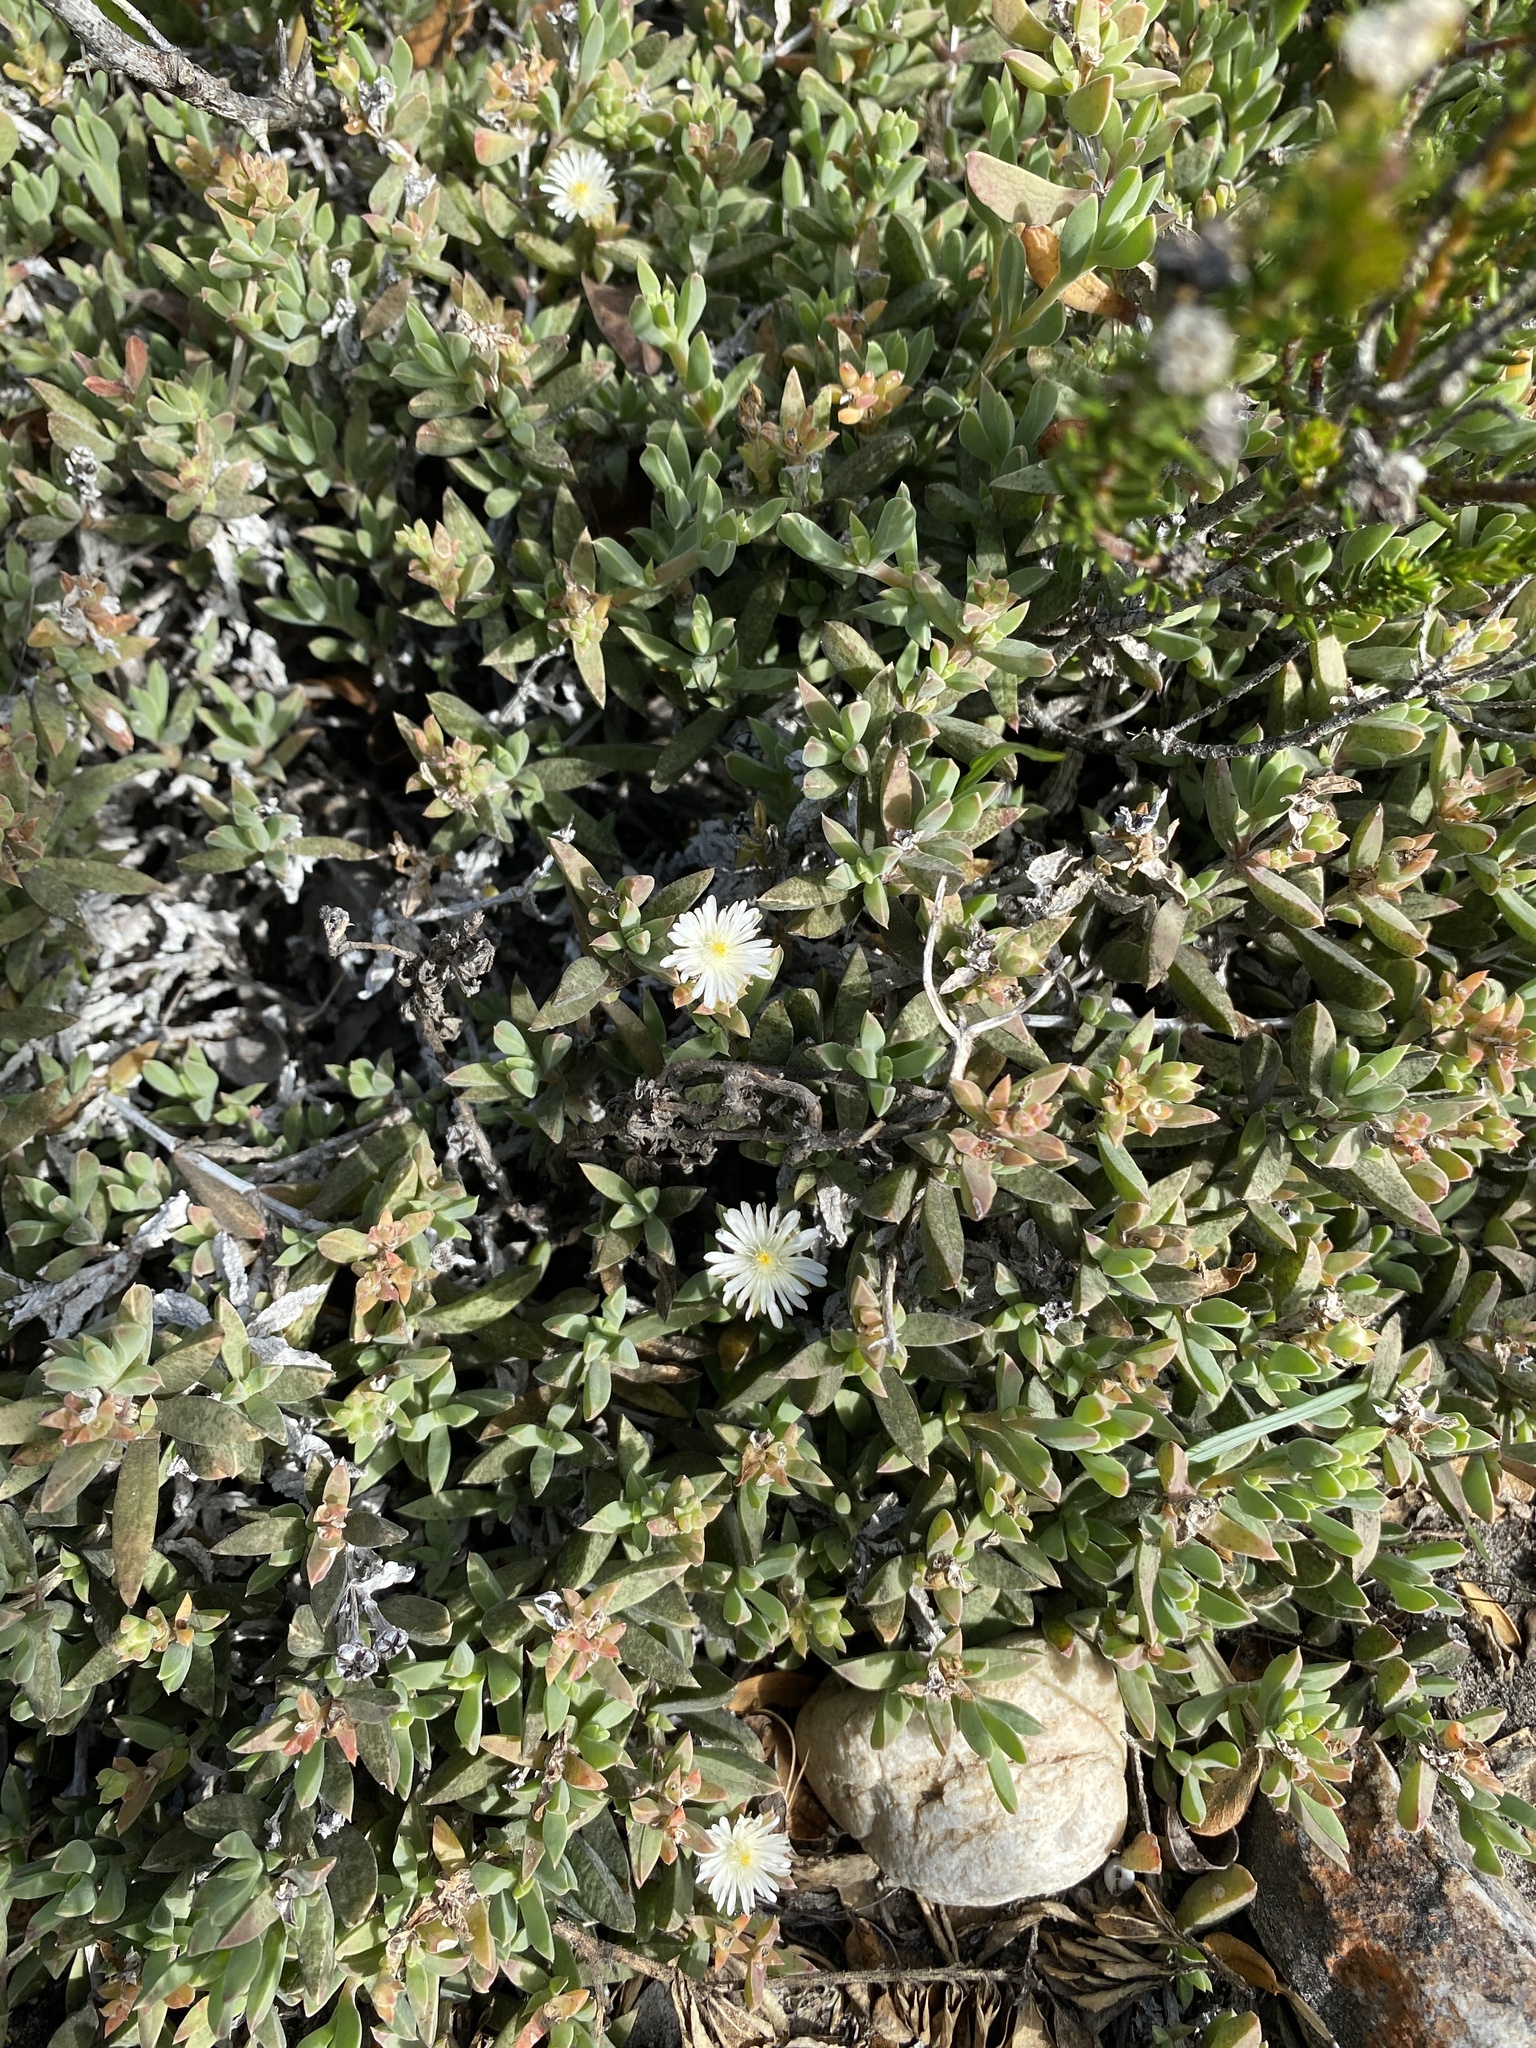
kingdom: Plantae
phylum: Tracheophyta
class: Magnoliopsida
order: Caryophyllales
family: Aizoaceae
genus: Delosperma
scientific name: Delosperma litorale
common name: Seaside delosperma
